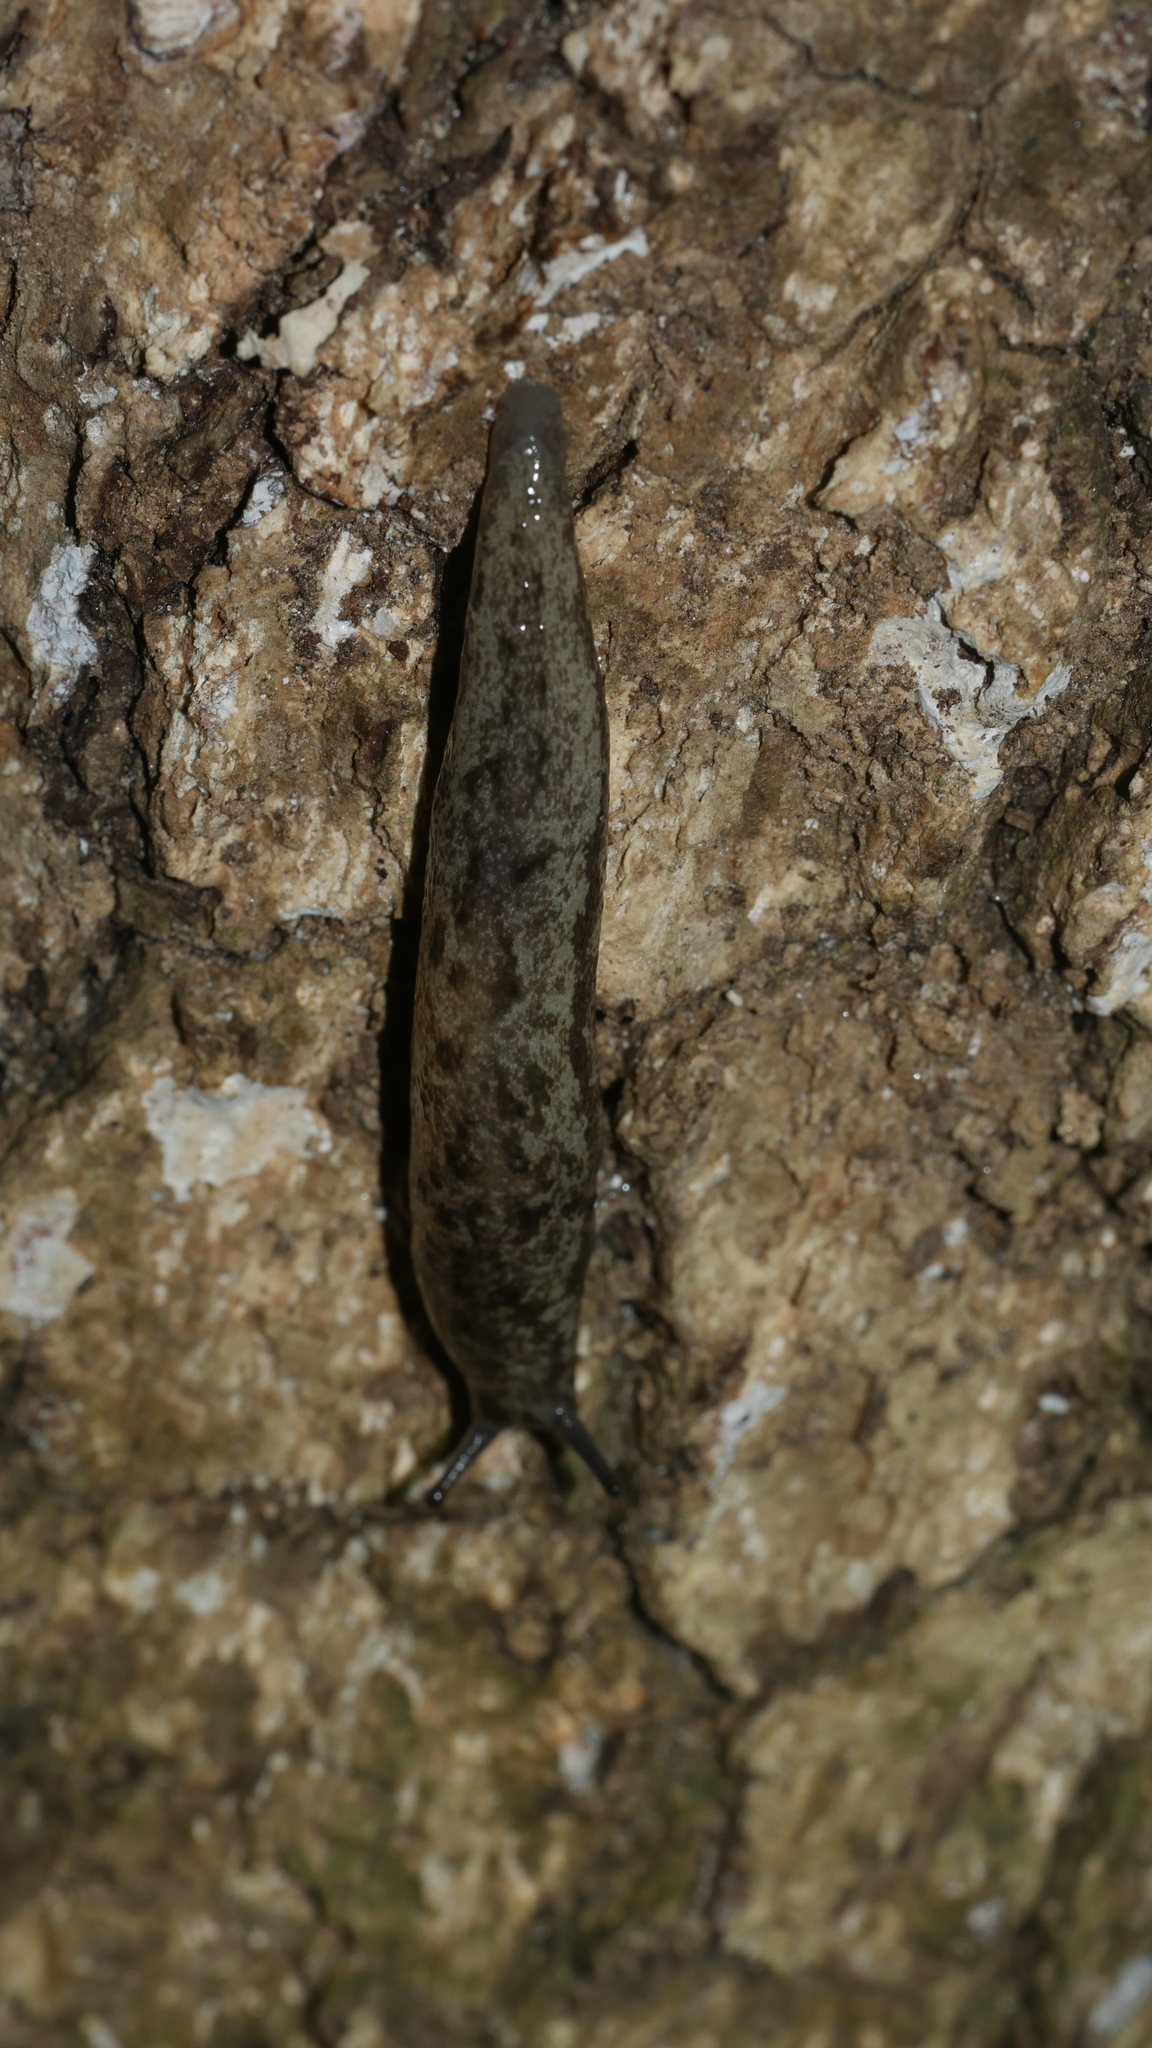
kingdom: Animalia
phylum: Mollusca
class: Gastropoda
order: Stylommatophora
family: Philomycidae
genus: Megapallifera
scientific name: Megapallifera mutabilis
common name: Changeable mantleslug
